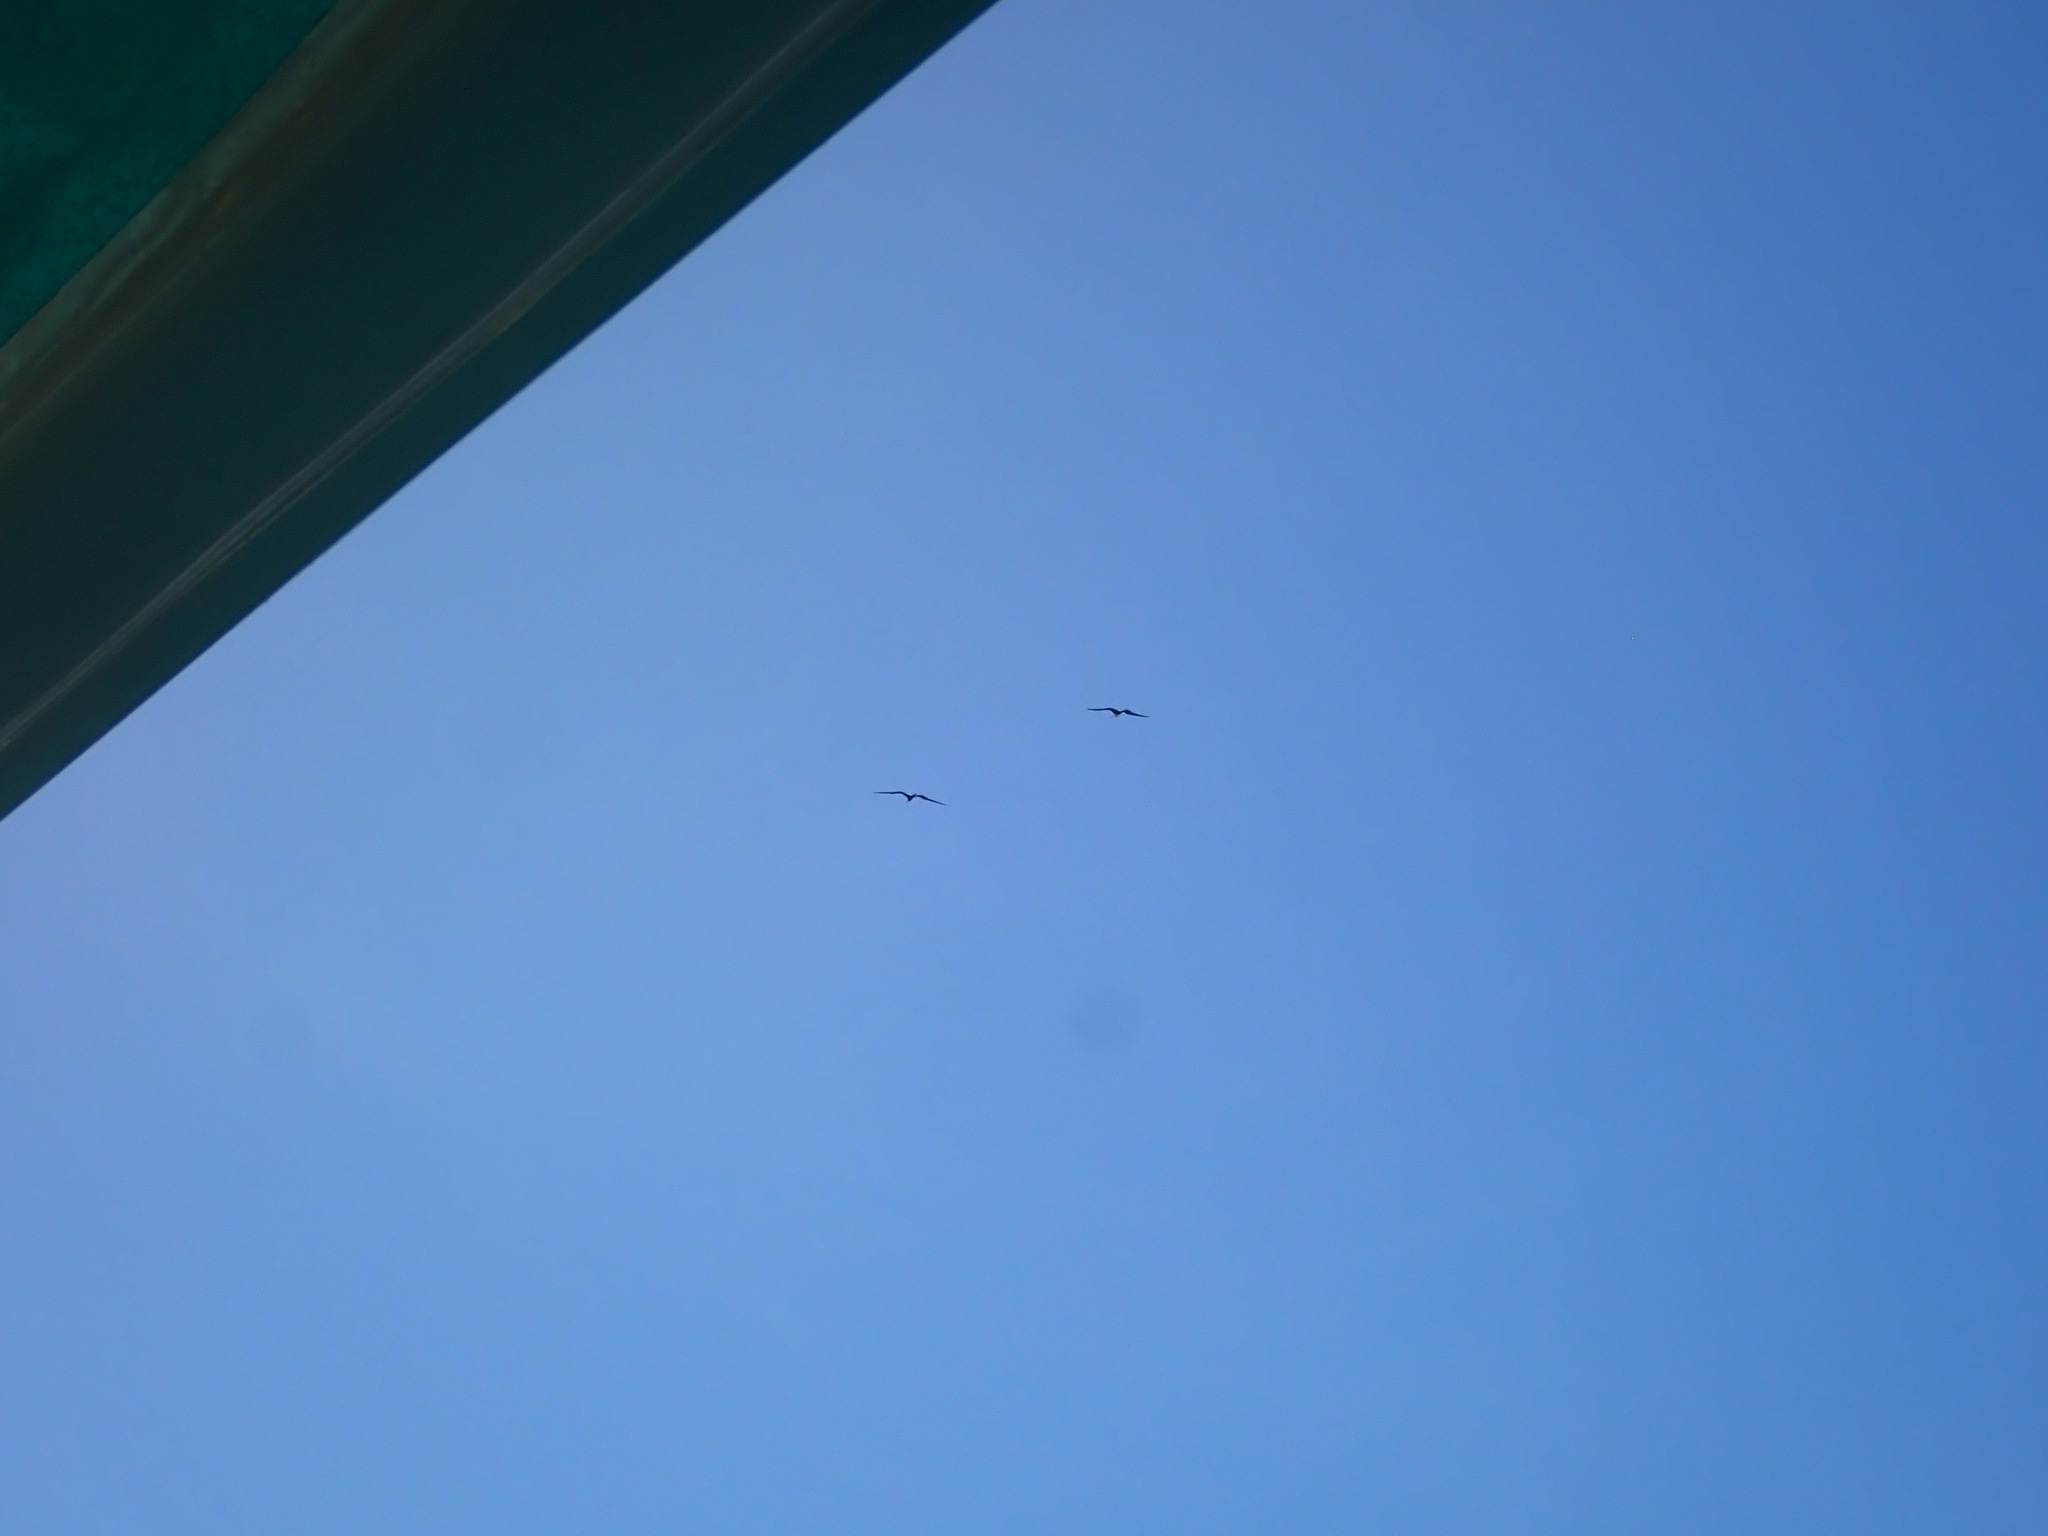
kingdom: Animalia
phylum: Chordata
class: Aves
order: Suliformes
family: Fregatidae
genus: Fregata
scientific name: Fregata magnificens
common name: Magnificent frigatebird
